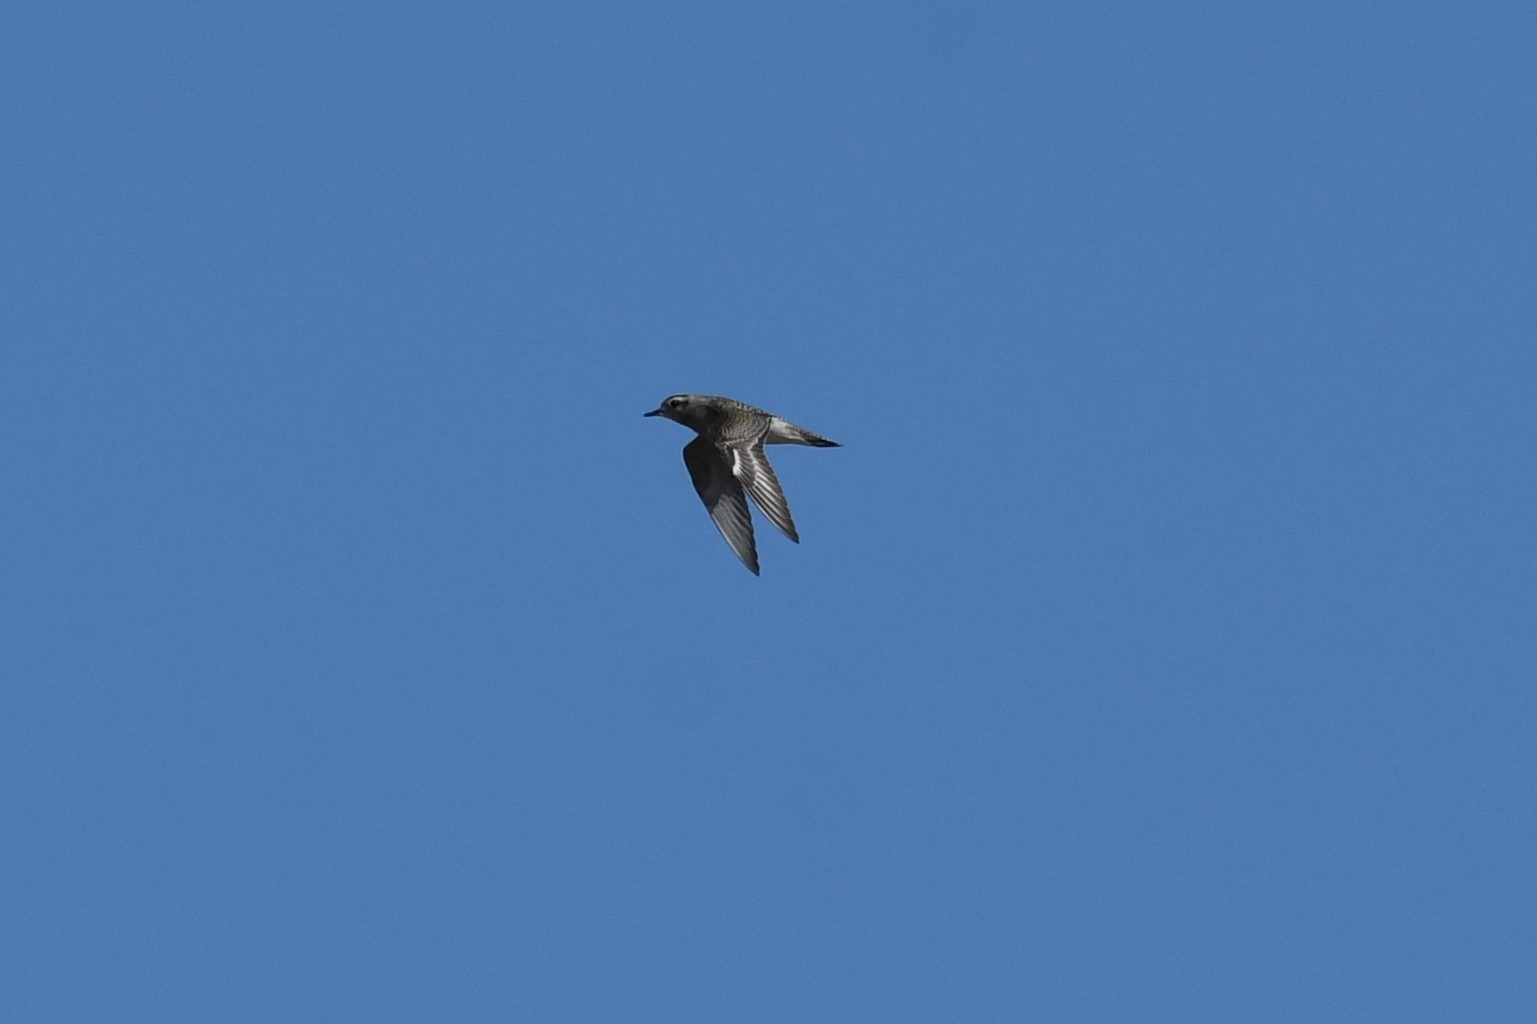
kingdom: Animalia
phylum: Chordata
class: Aves
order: Charadriiformes
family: Charadriidae
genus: Pluvialis
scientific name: Pluvialis dominica
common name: American golden plover
